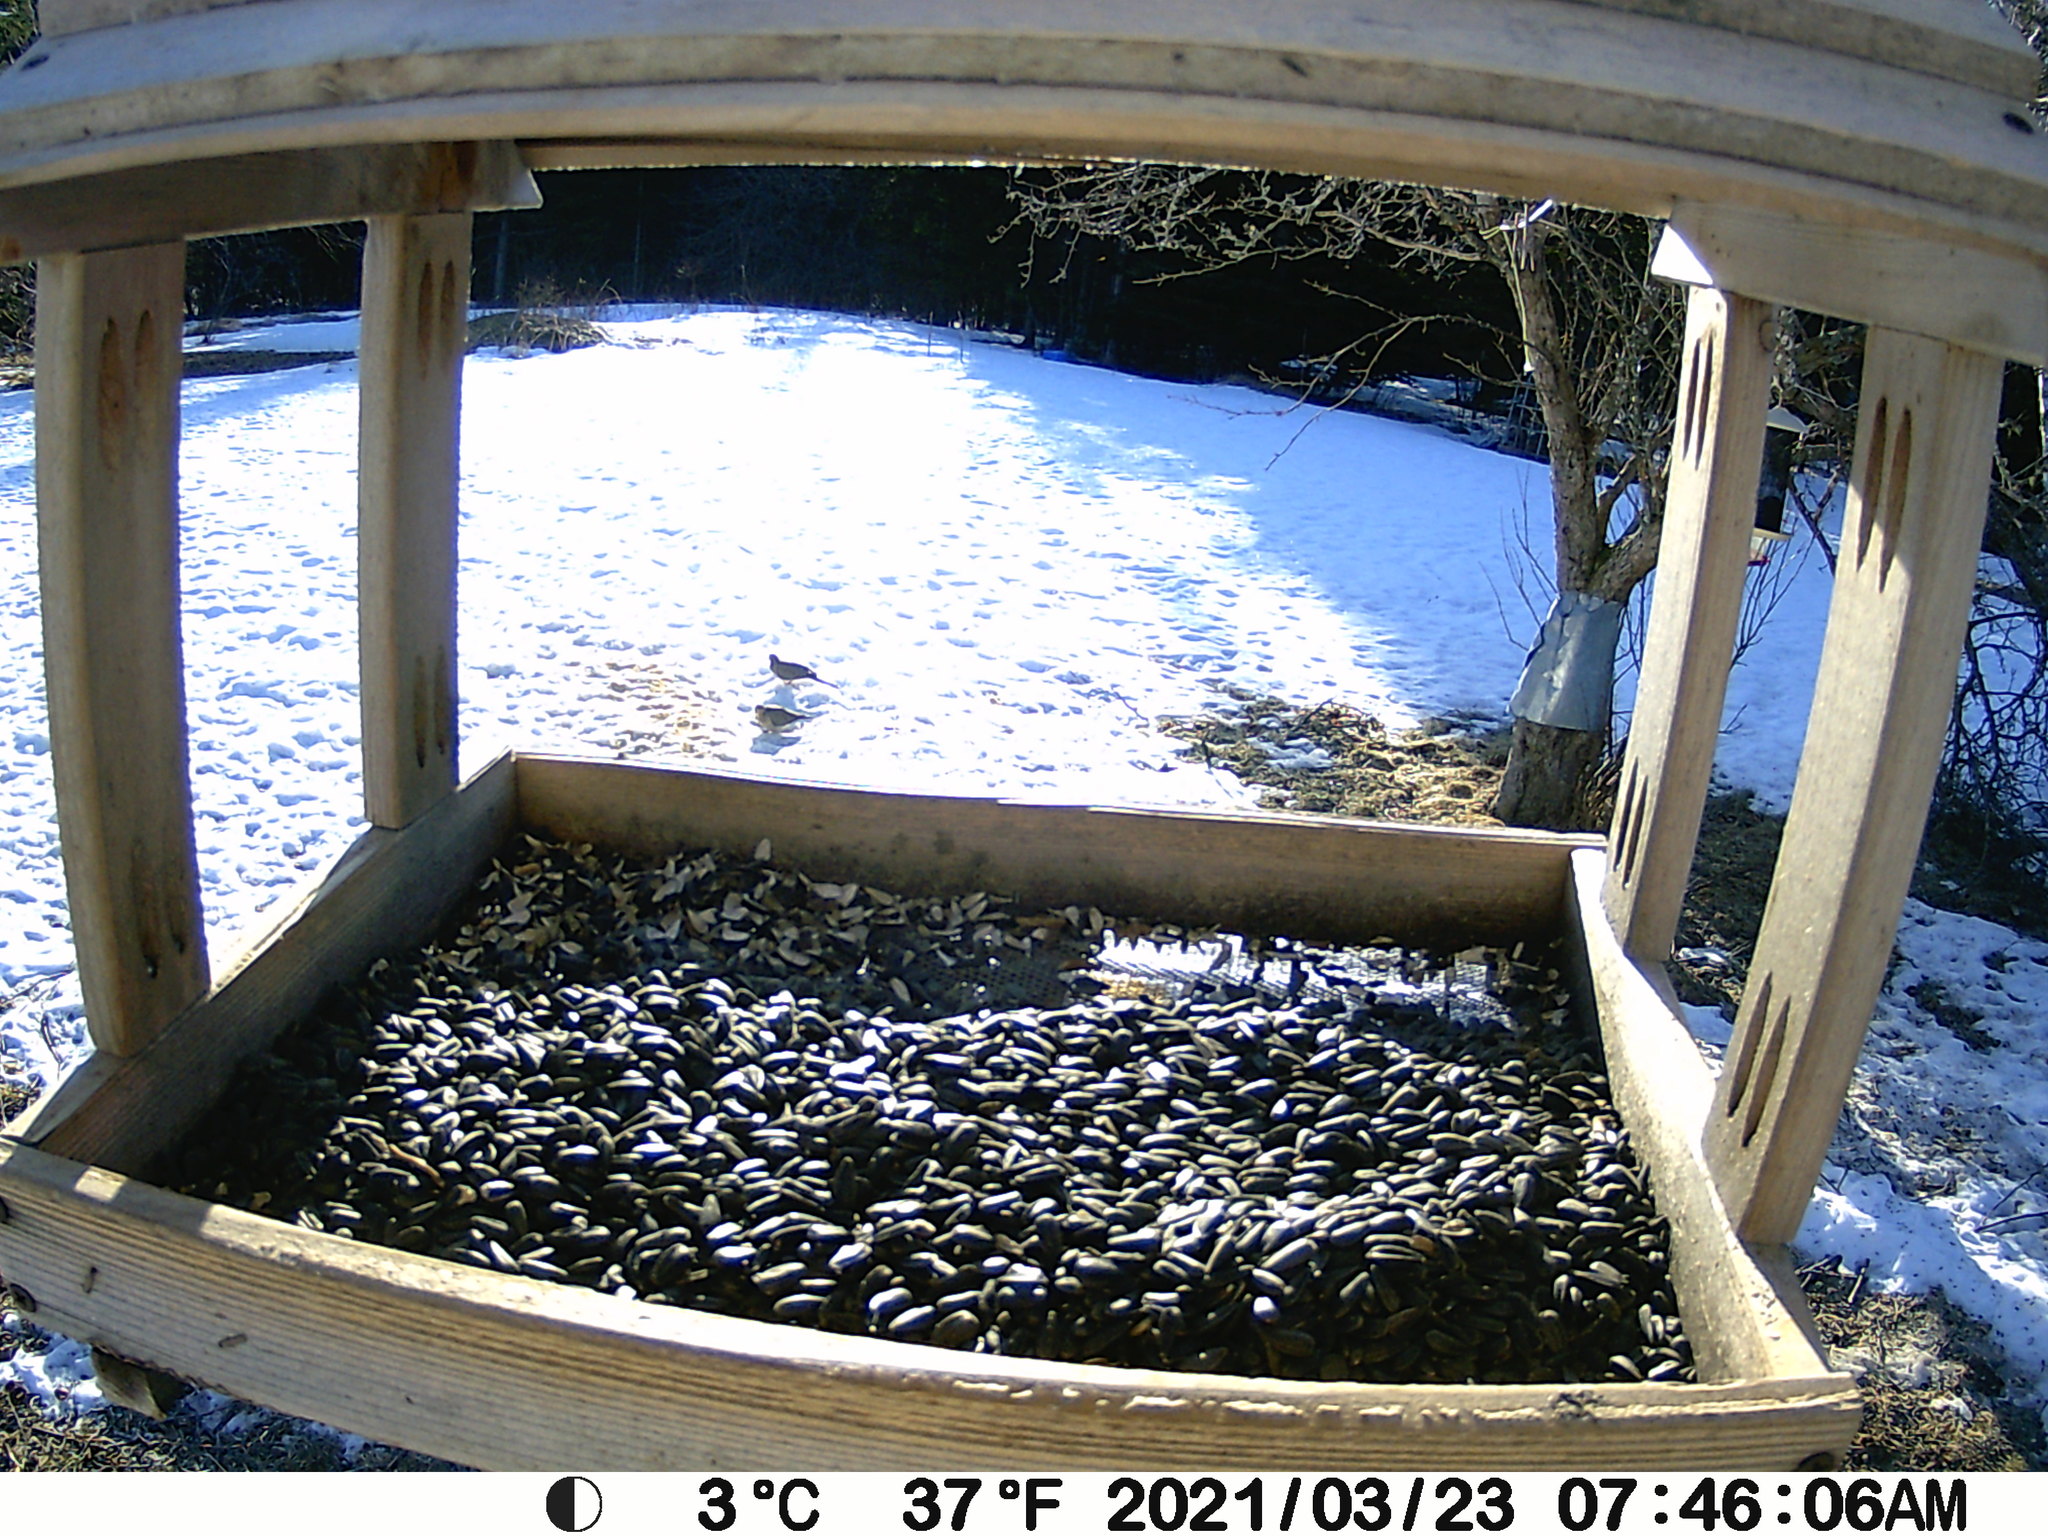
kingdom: Animalia
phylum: Chordata
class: Aves
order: Columbiformes
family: Columbidae
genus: Zenaida
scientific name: Zenaida macroura
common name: Mourning dove
